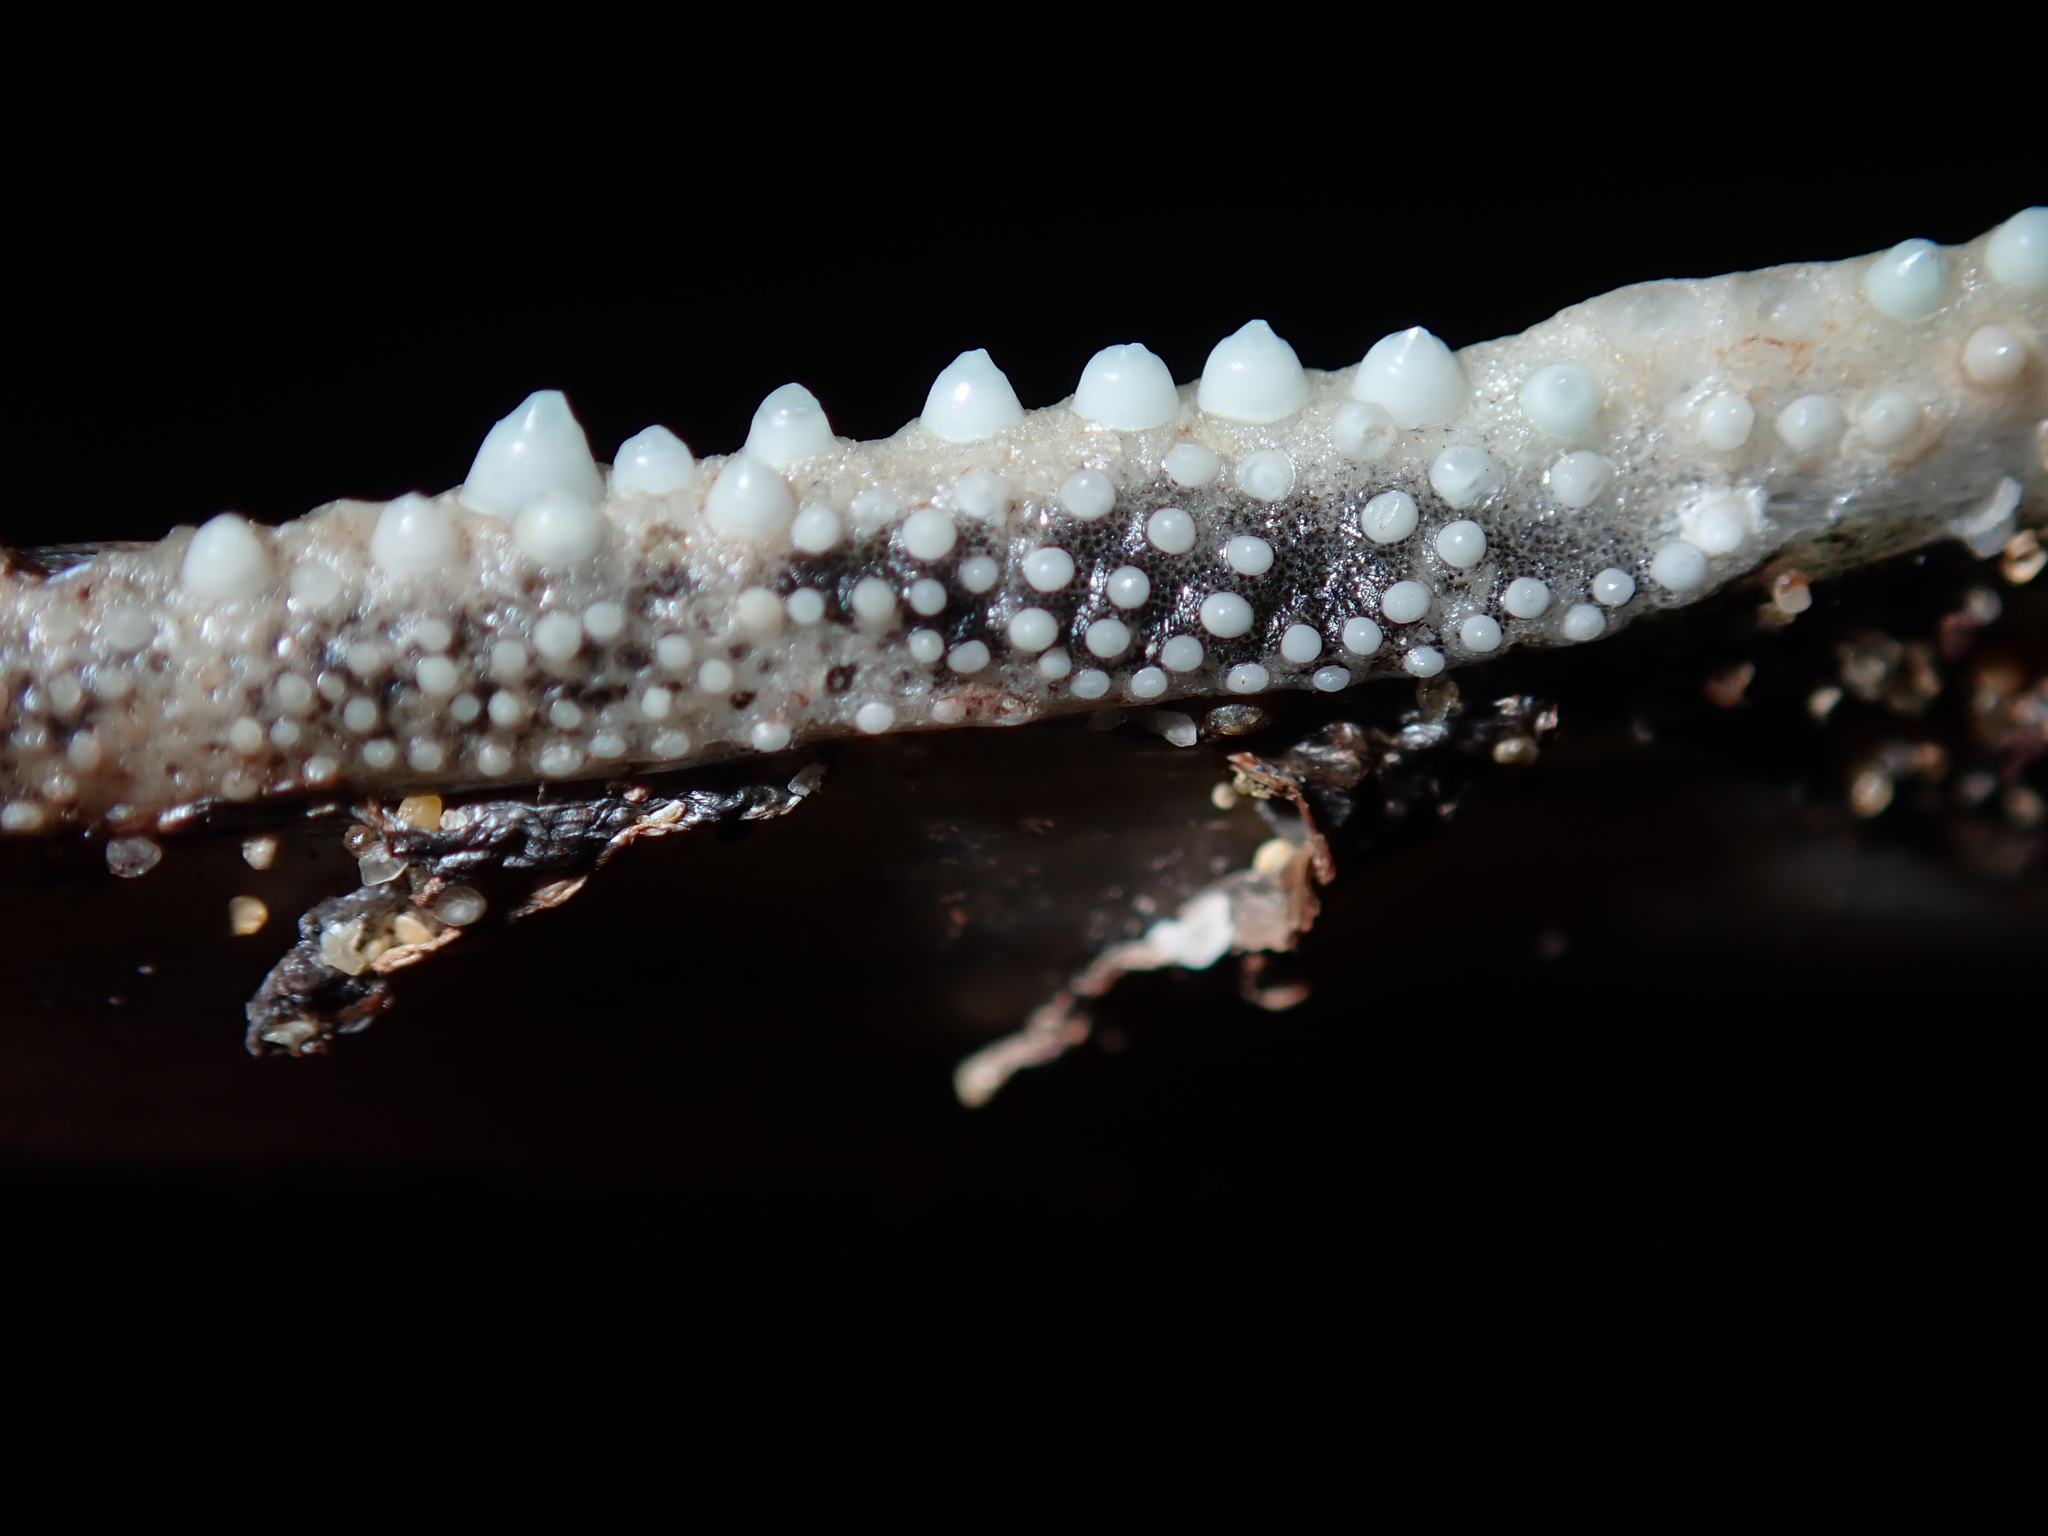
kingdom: Animalia
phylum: Chordata
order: Beloniformes
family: Belonidae
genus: Tylosurus
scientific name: Tylosurus gavialoides
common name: Stout longtom
